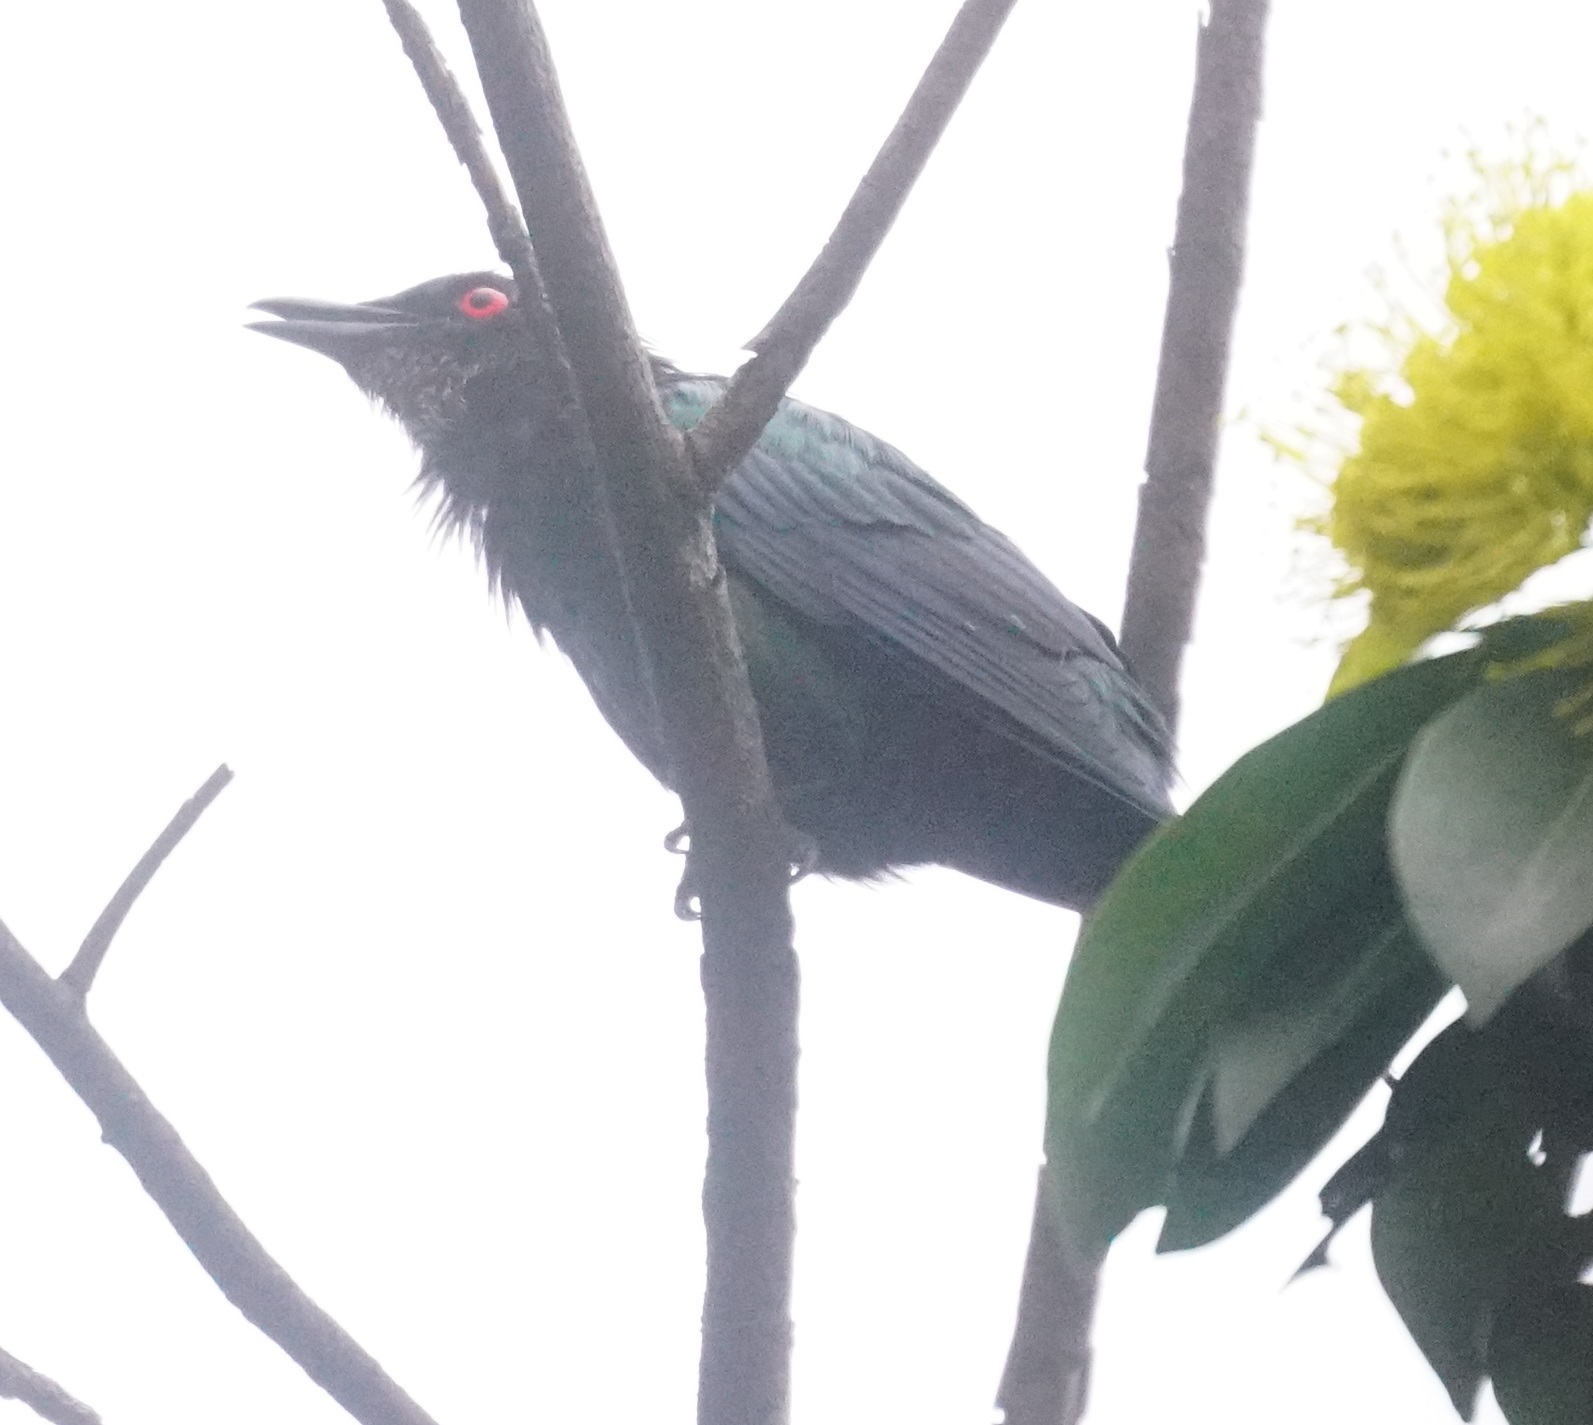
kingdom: Animalia
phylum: Chordata
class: Aves
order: Passeriformes
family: Sturnidae
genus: Aplonis
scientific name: Aplonis metallica
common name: Metallic starling
